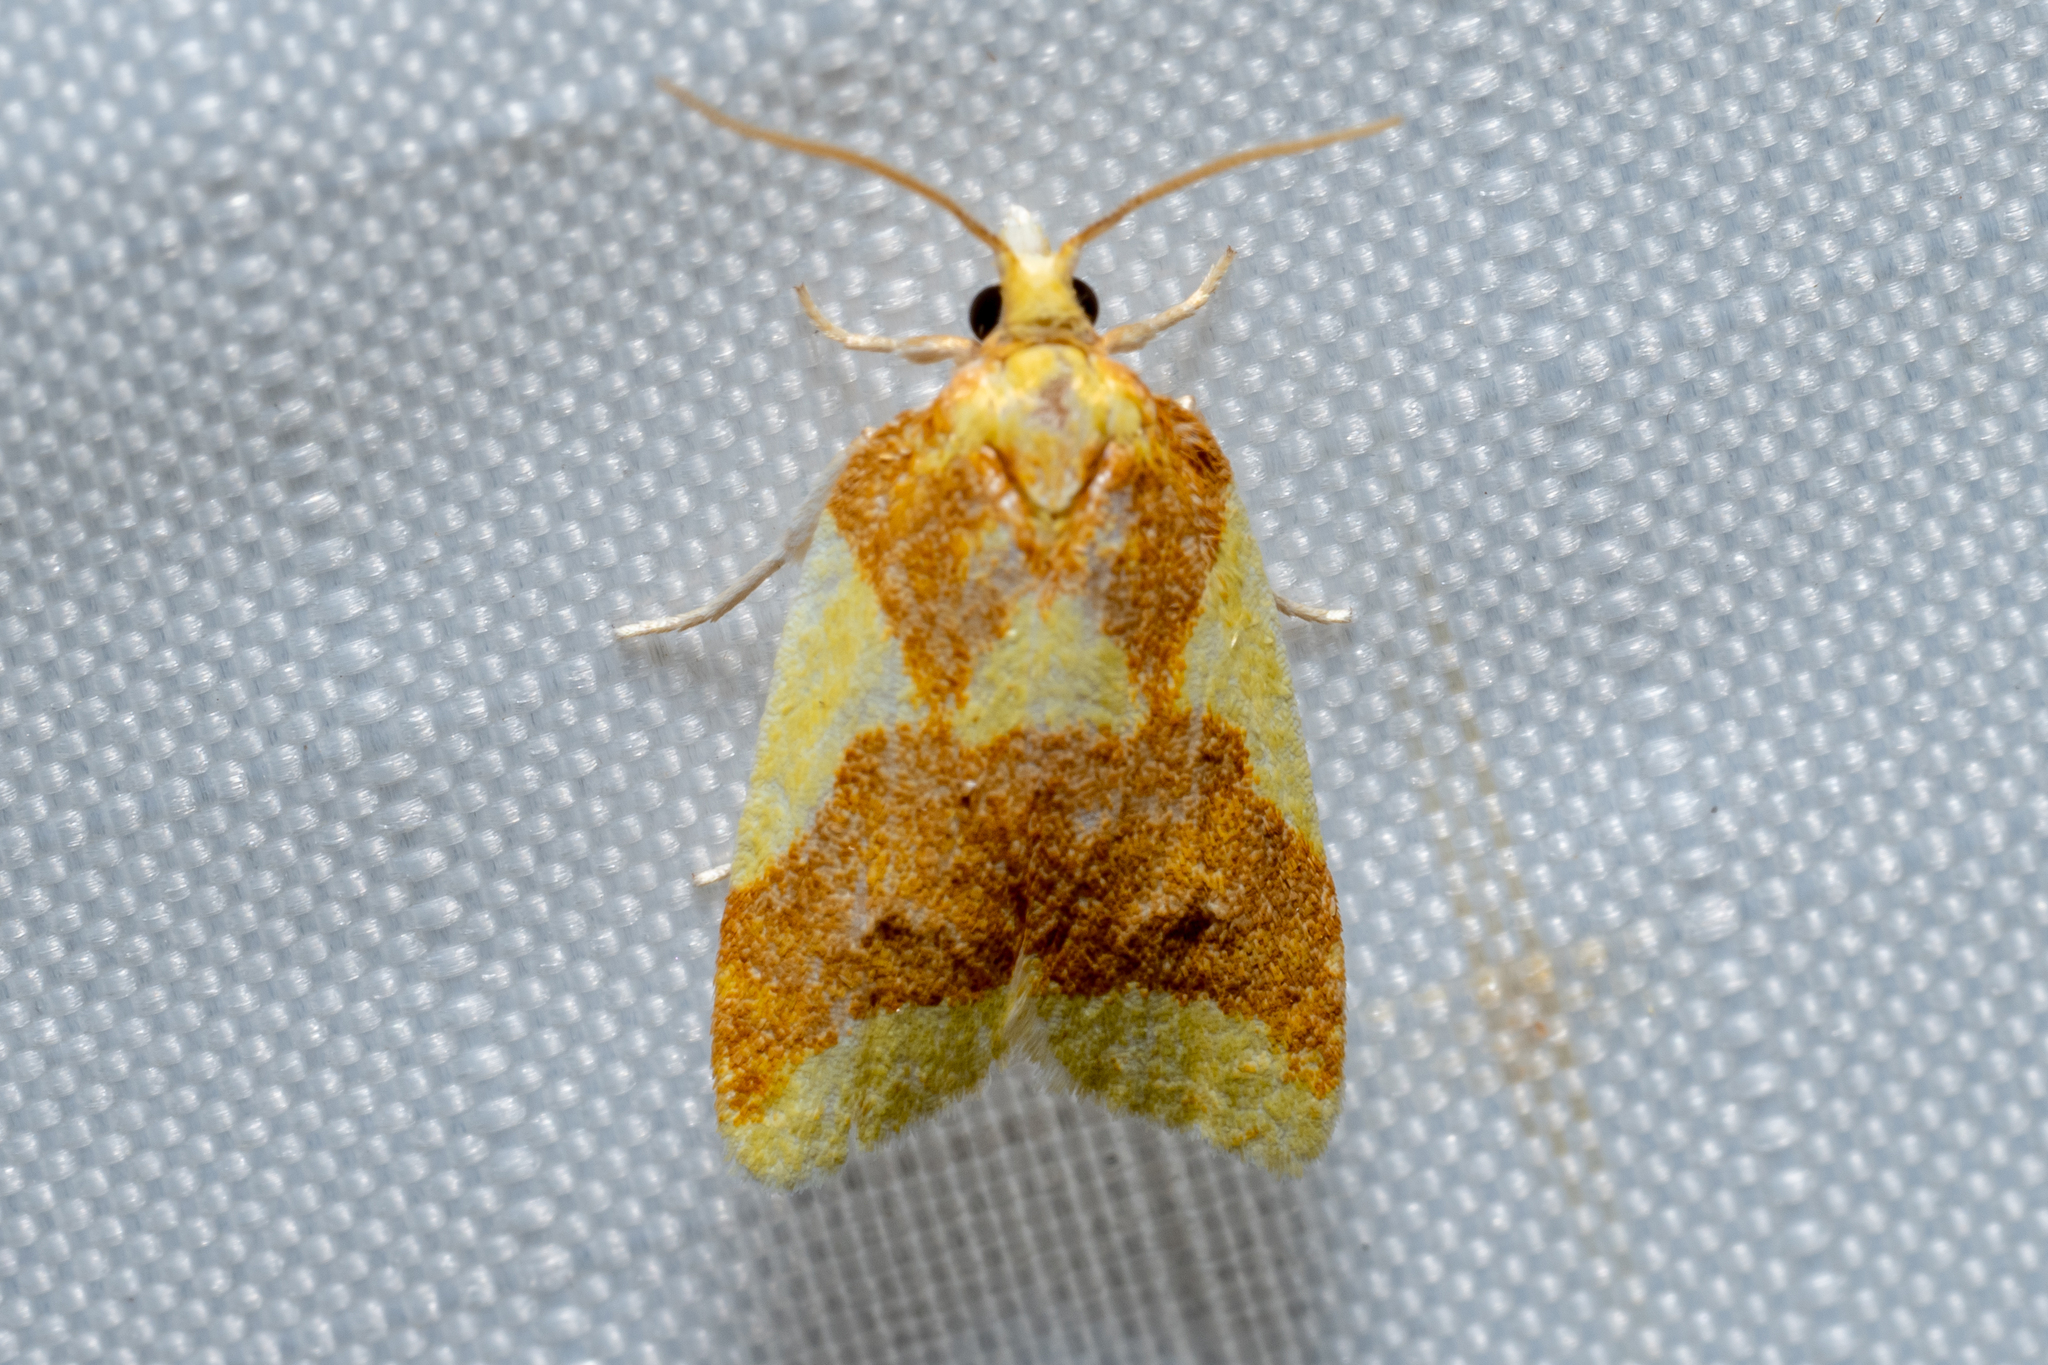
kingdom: Animalia
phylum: Arthropoda
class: Insecta
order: Lepidoptera
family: Tortricidae
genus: Sparganothis
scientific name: Sparganothis pulcherrimana
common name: Beautiful sparganothis
